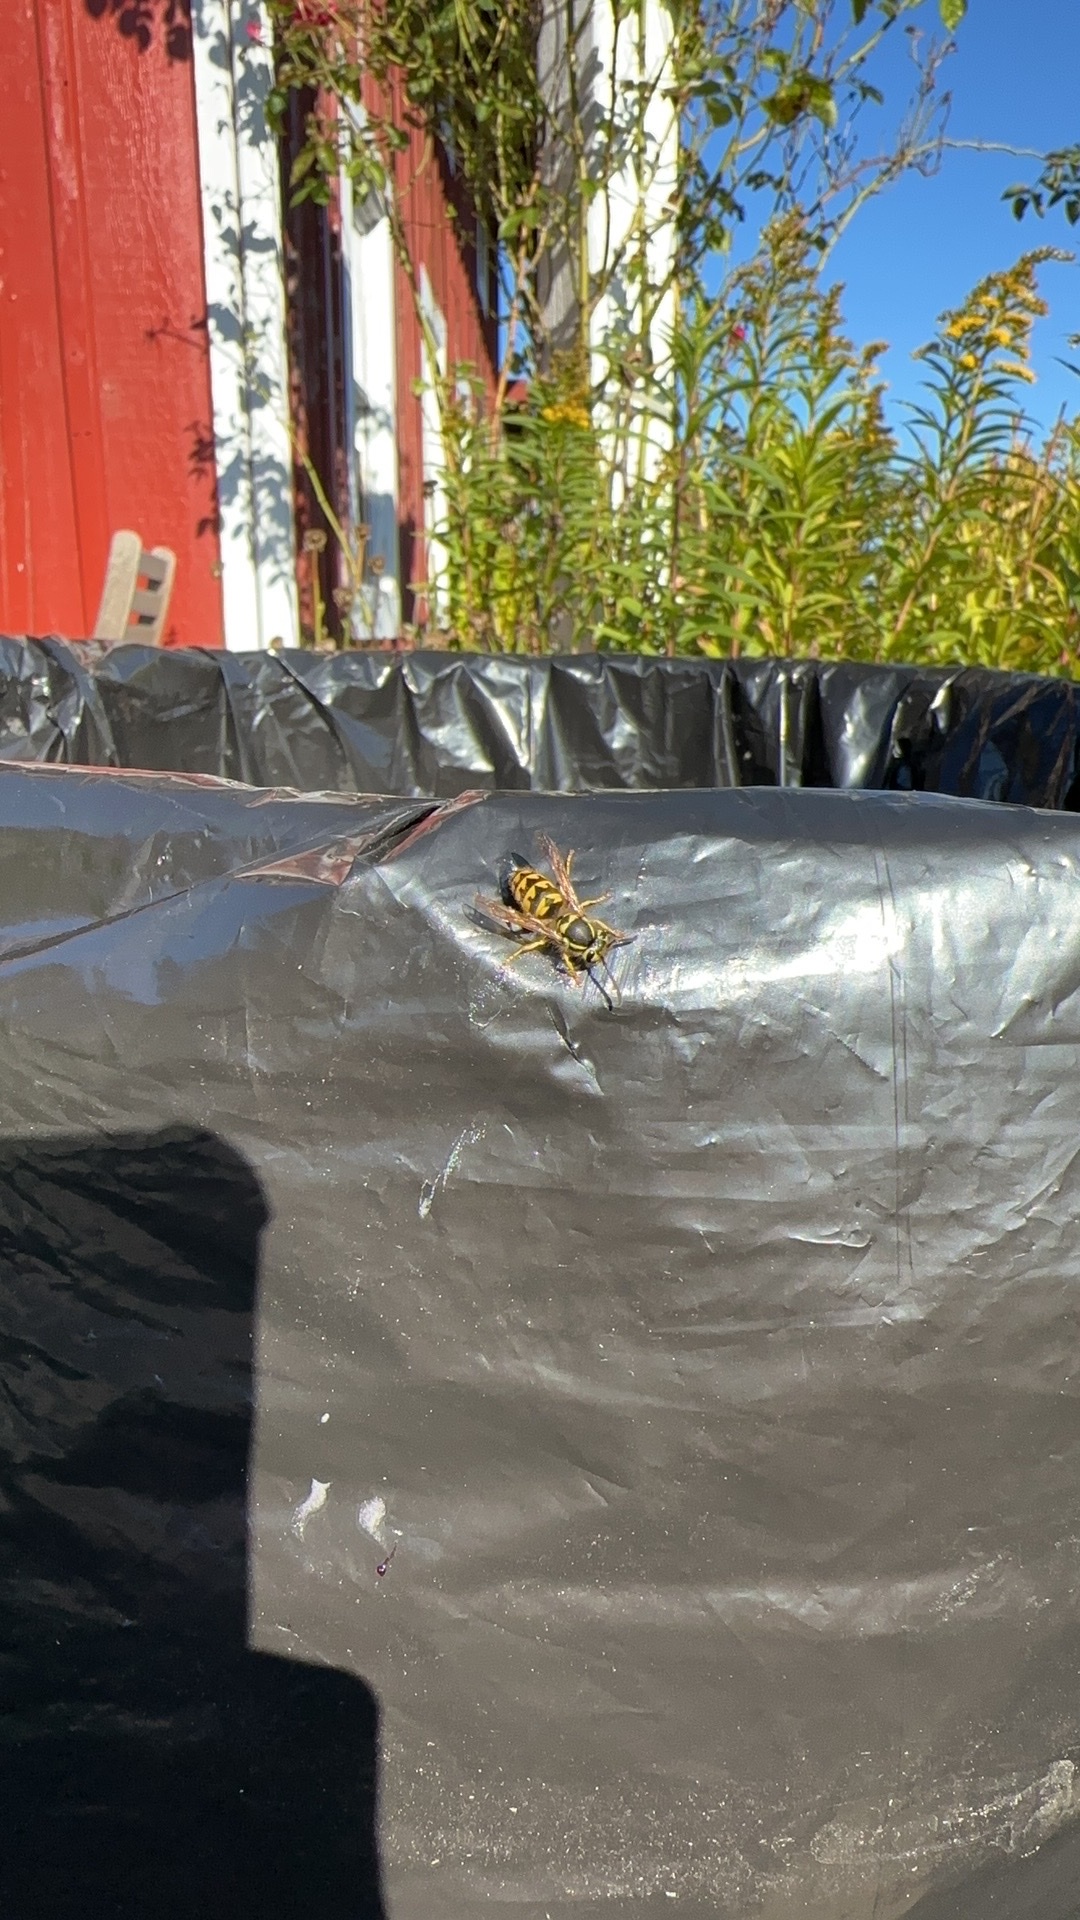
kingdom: Animalia
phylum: Arthropoda
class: Insecta
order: Hymenoptera
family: Vespidae
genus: Vespula
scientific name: Vespula pensylvanica
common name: Western yellowjacket
